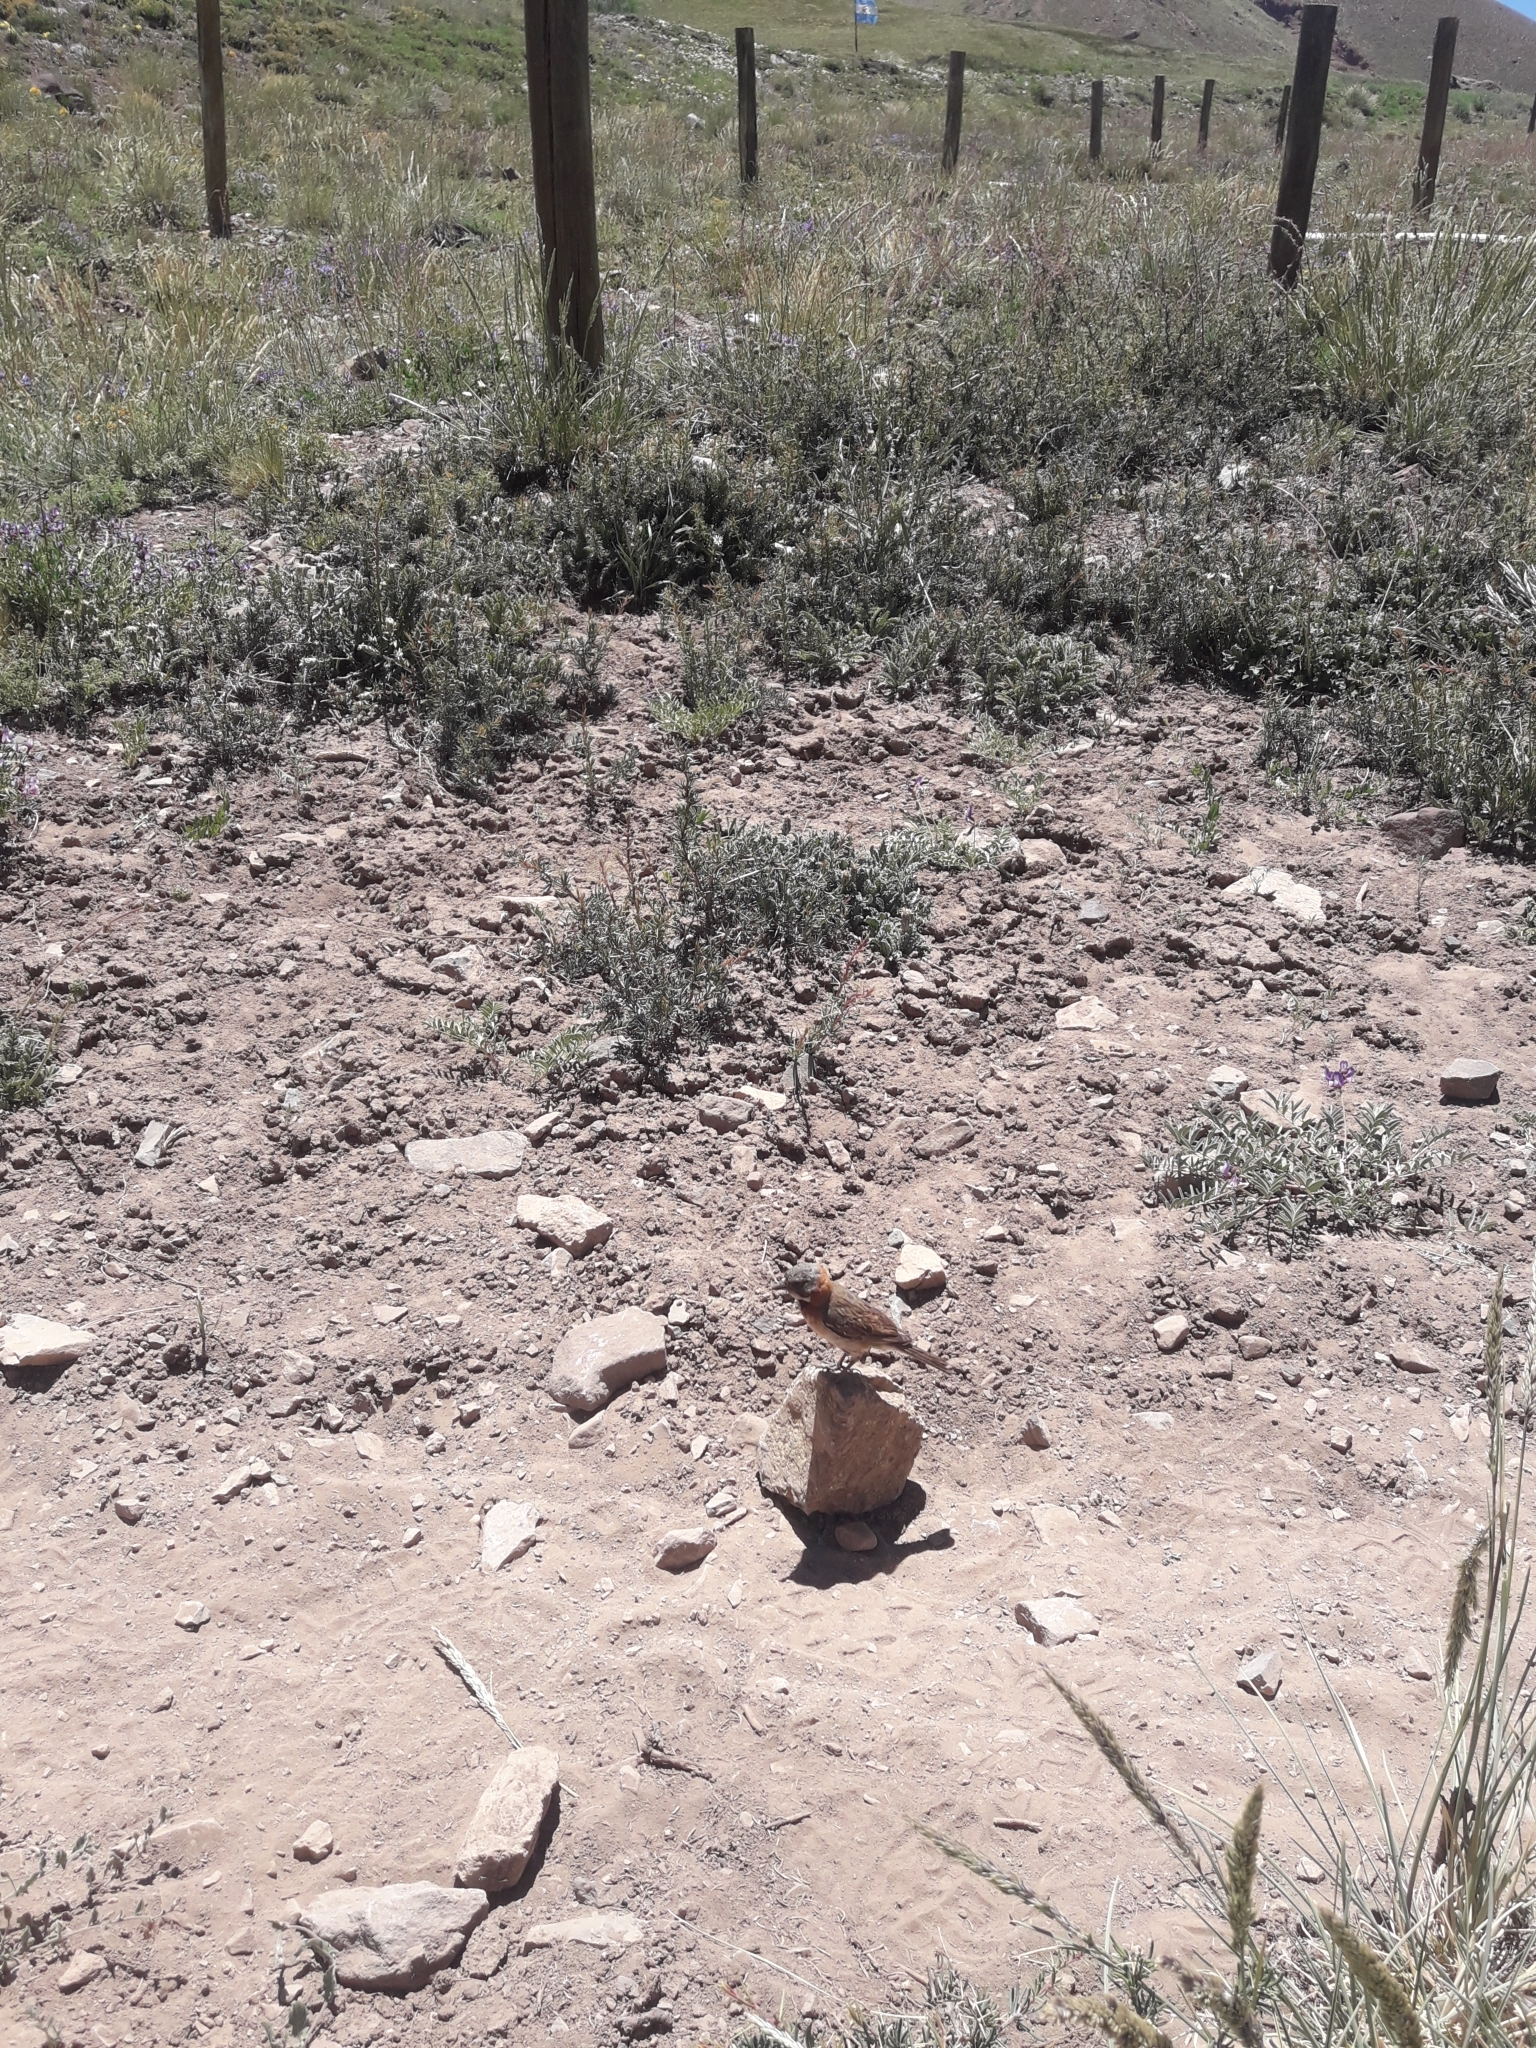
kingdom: Animalia
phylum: Chordata
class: Aves
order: Passeriformes
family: Passerellidae
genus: Zonotrichia
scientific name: Zonotrichia capensis
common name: Rufous-collared sparrow
